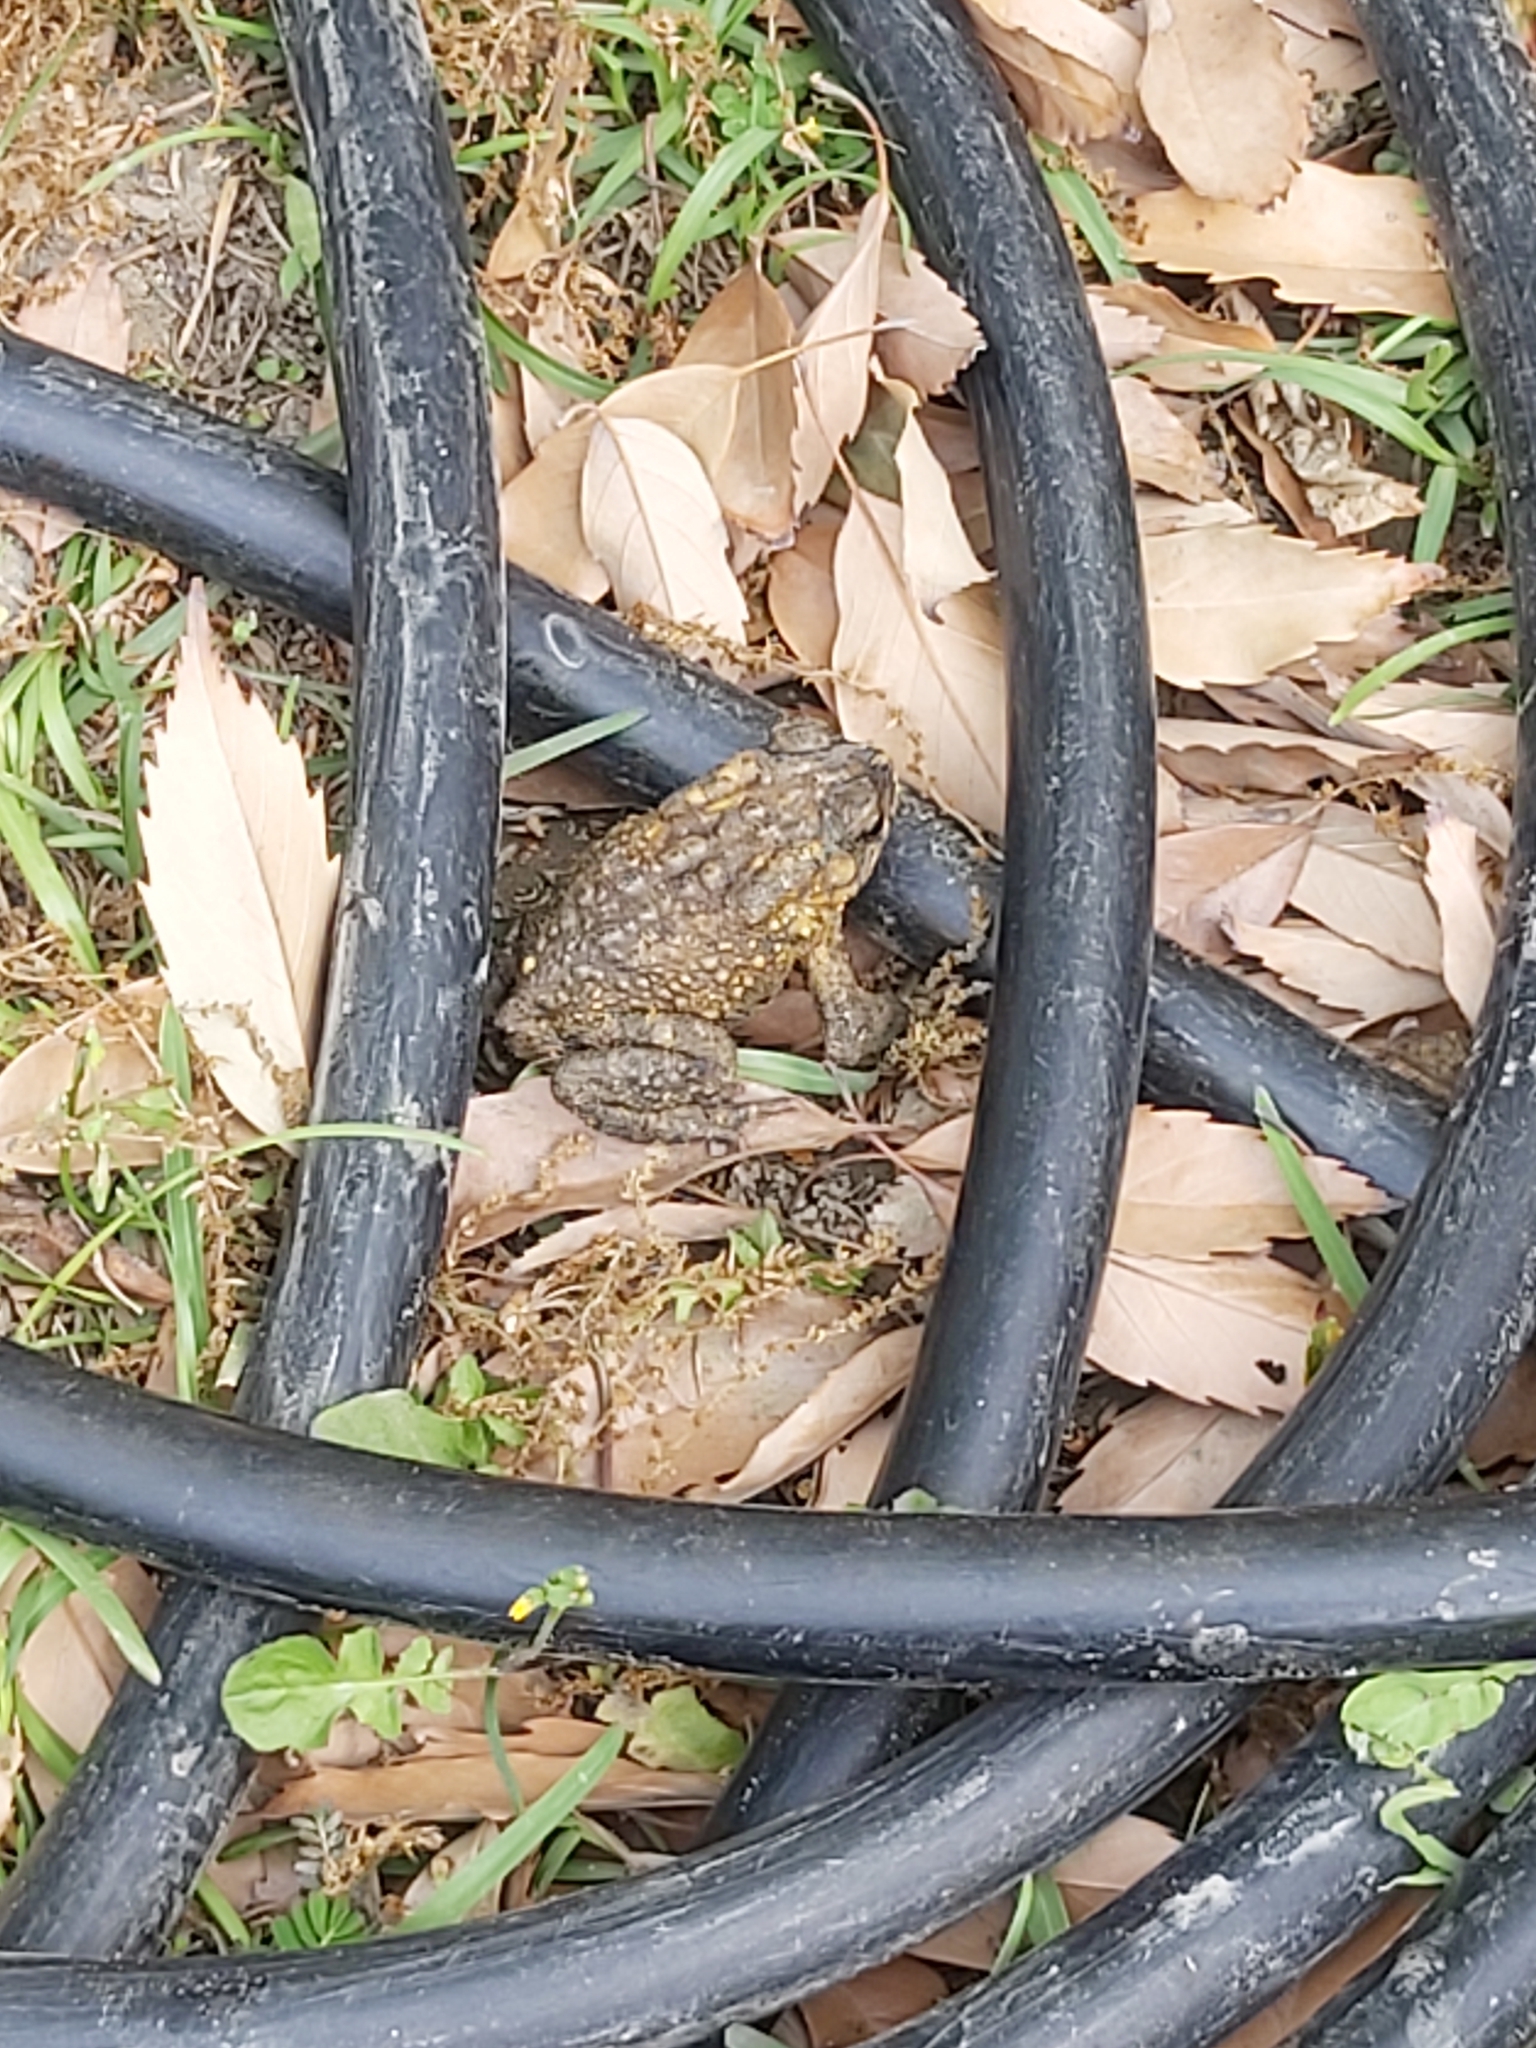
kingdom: Animalia
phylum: Chordata
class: Amphibia
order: Anura
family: Bufonidae
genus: Duttaphrynus
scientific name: Duttaphrynus melanostictus
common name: Common sunda toad
